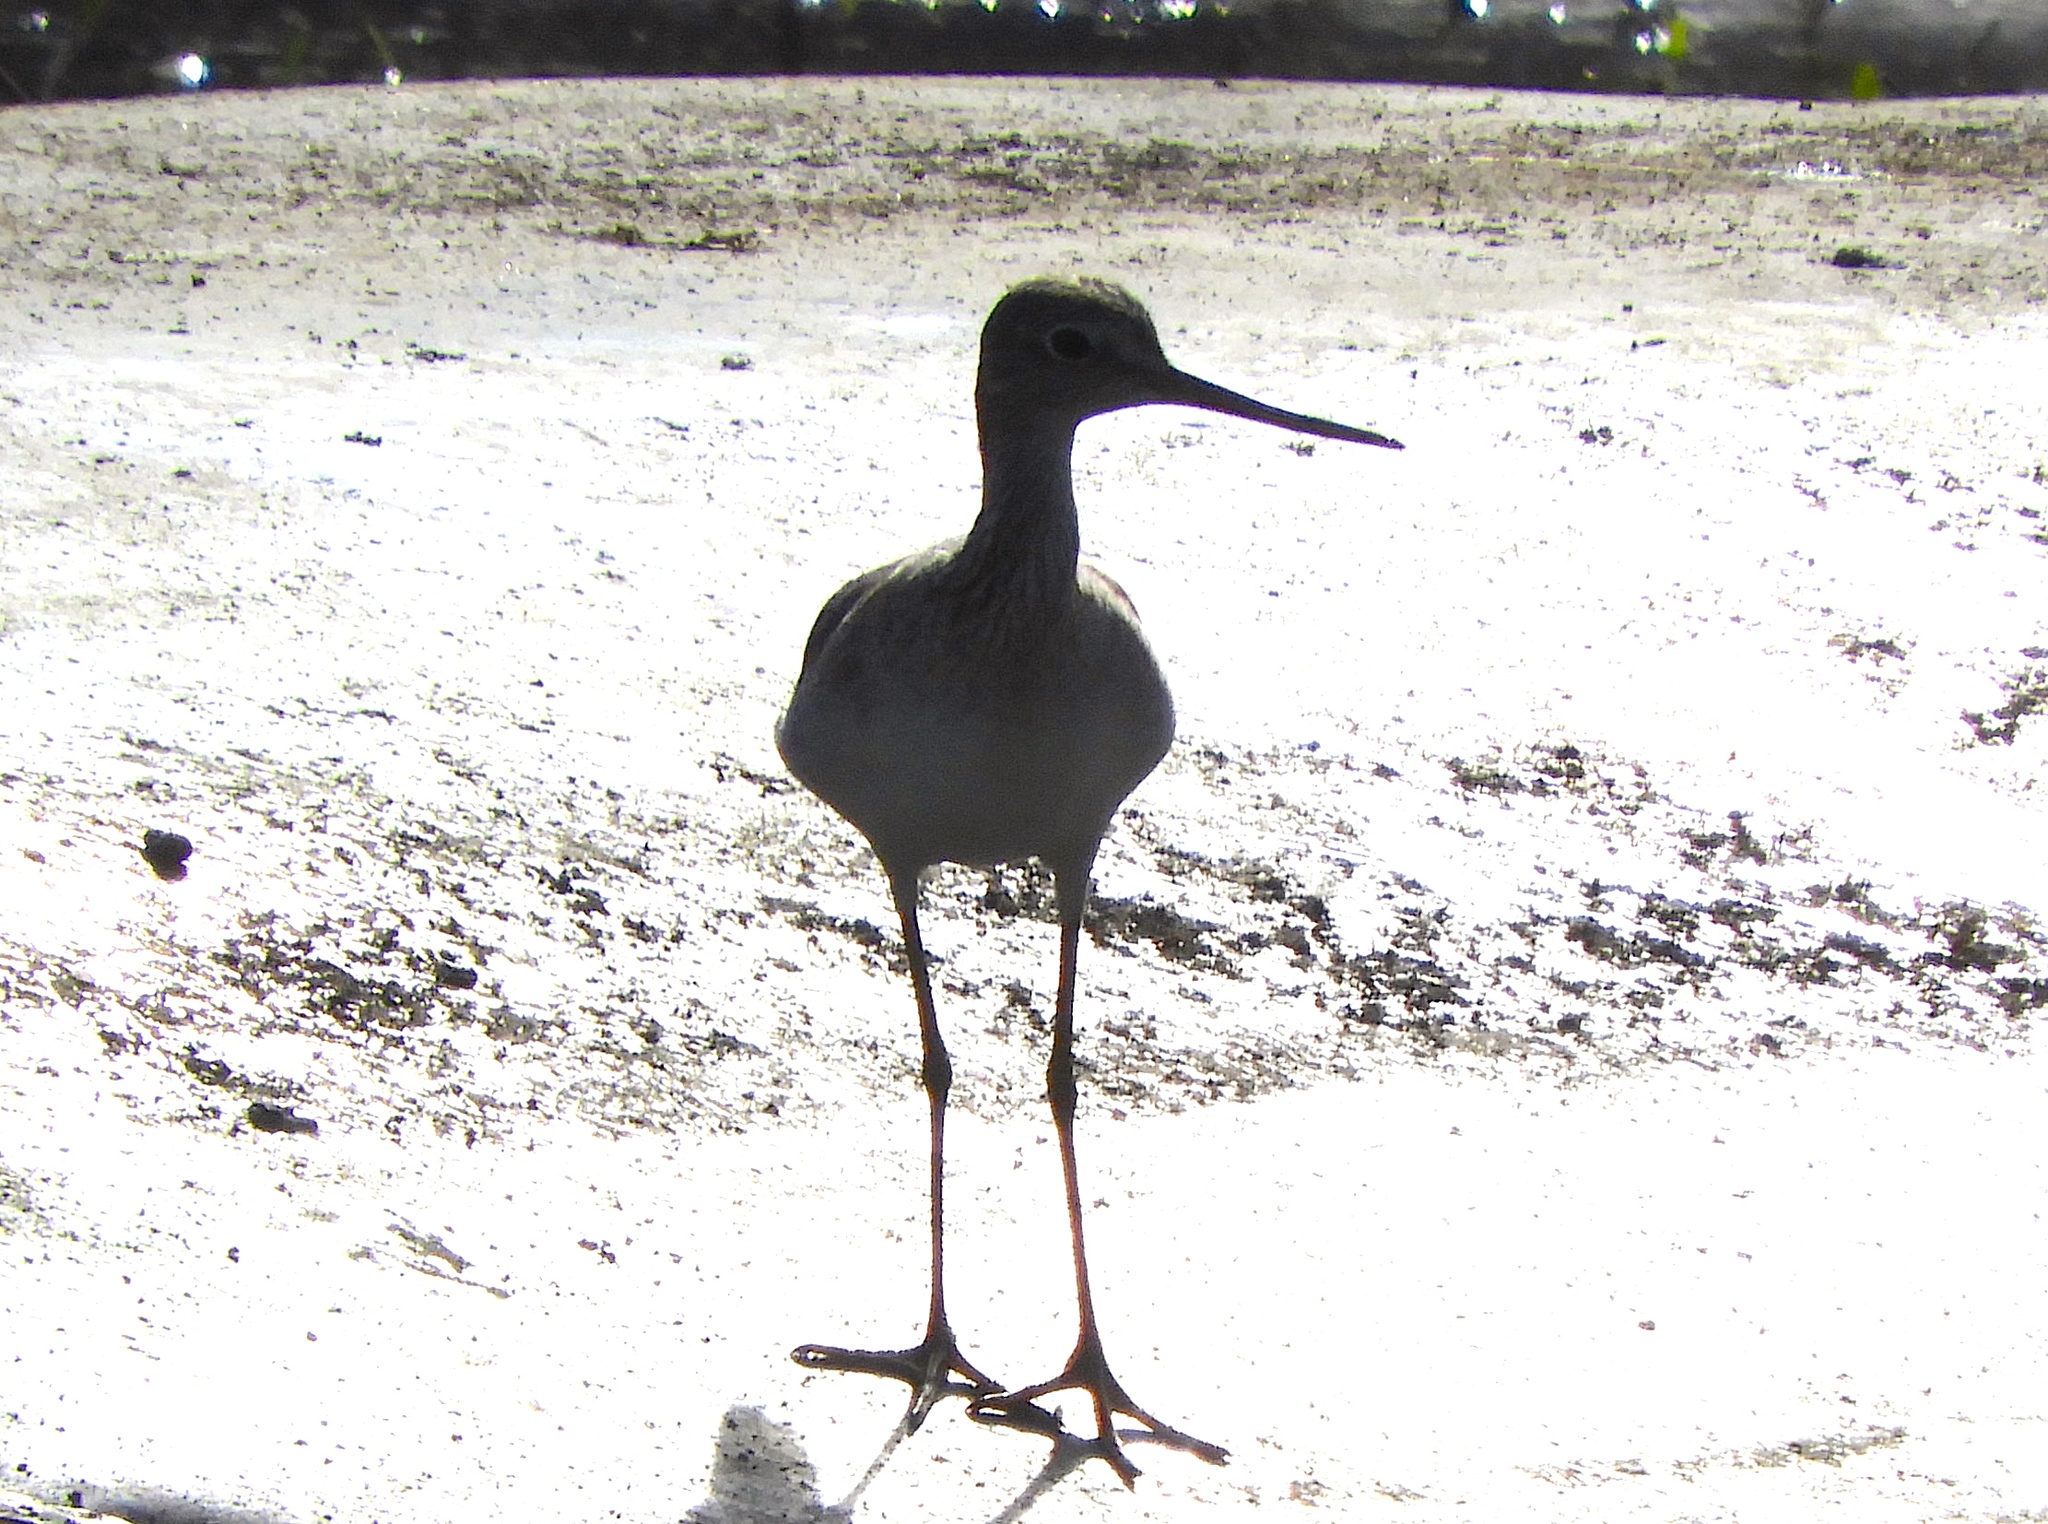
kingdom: Animalia
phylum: Chordata
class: Aves
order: Charadriiformes
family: Scolopacidae
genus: Tringa
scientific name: Tringa melanoleuca
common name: Greater yellowlegs
